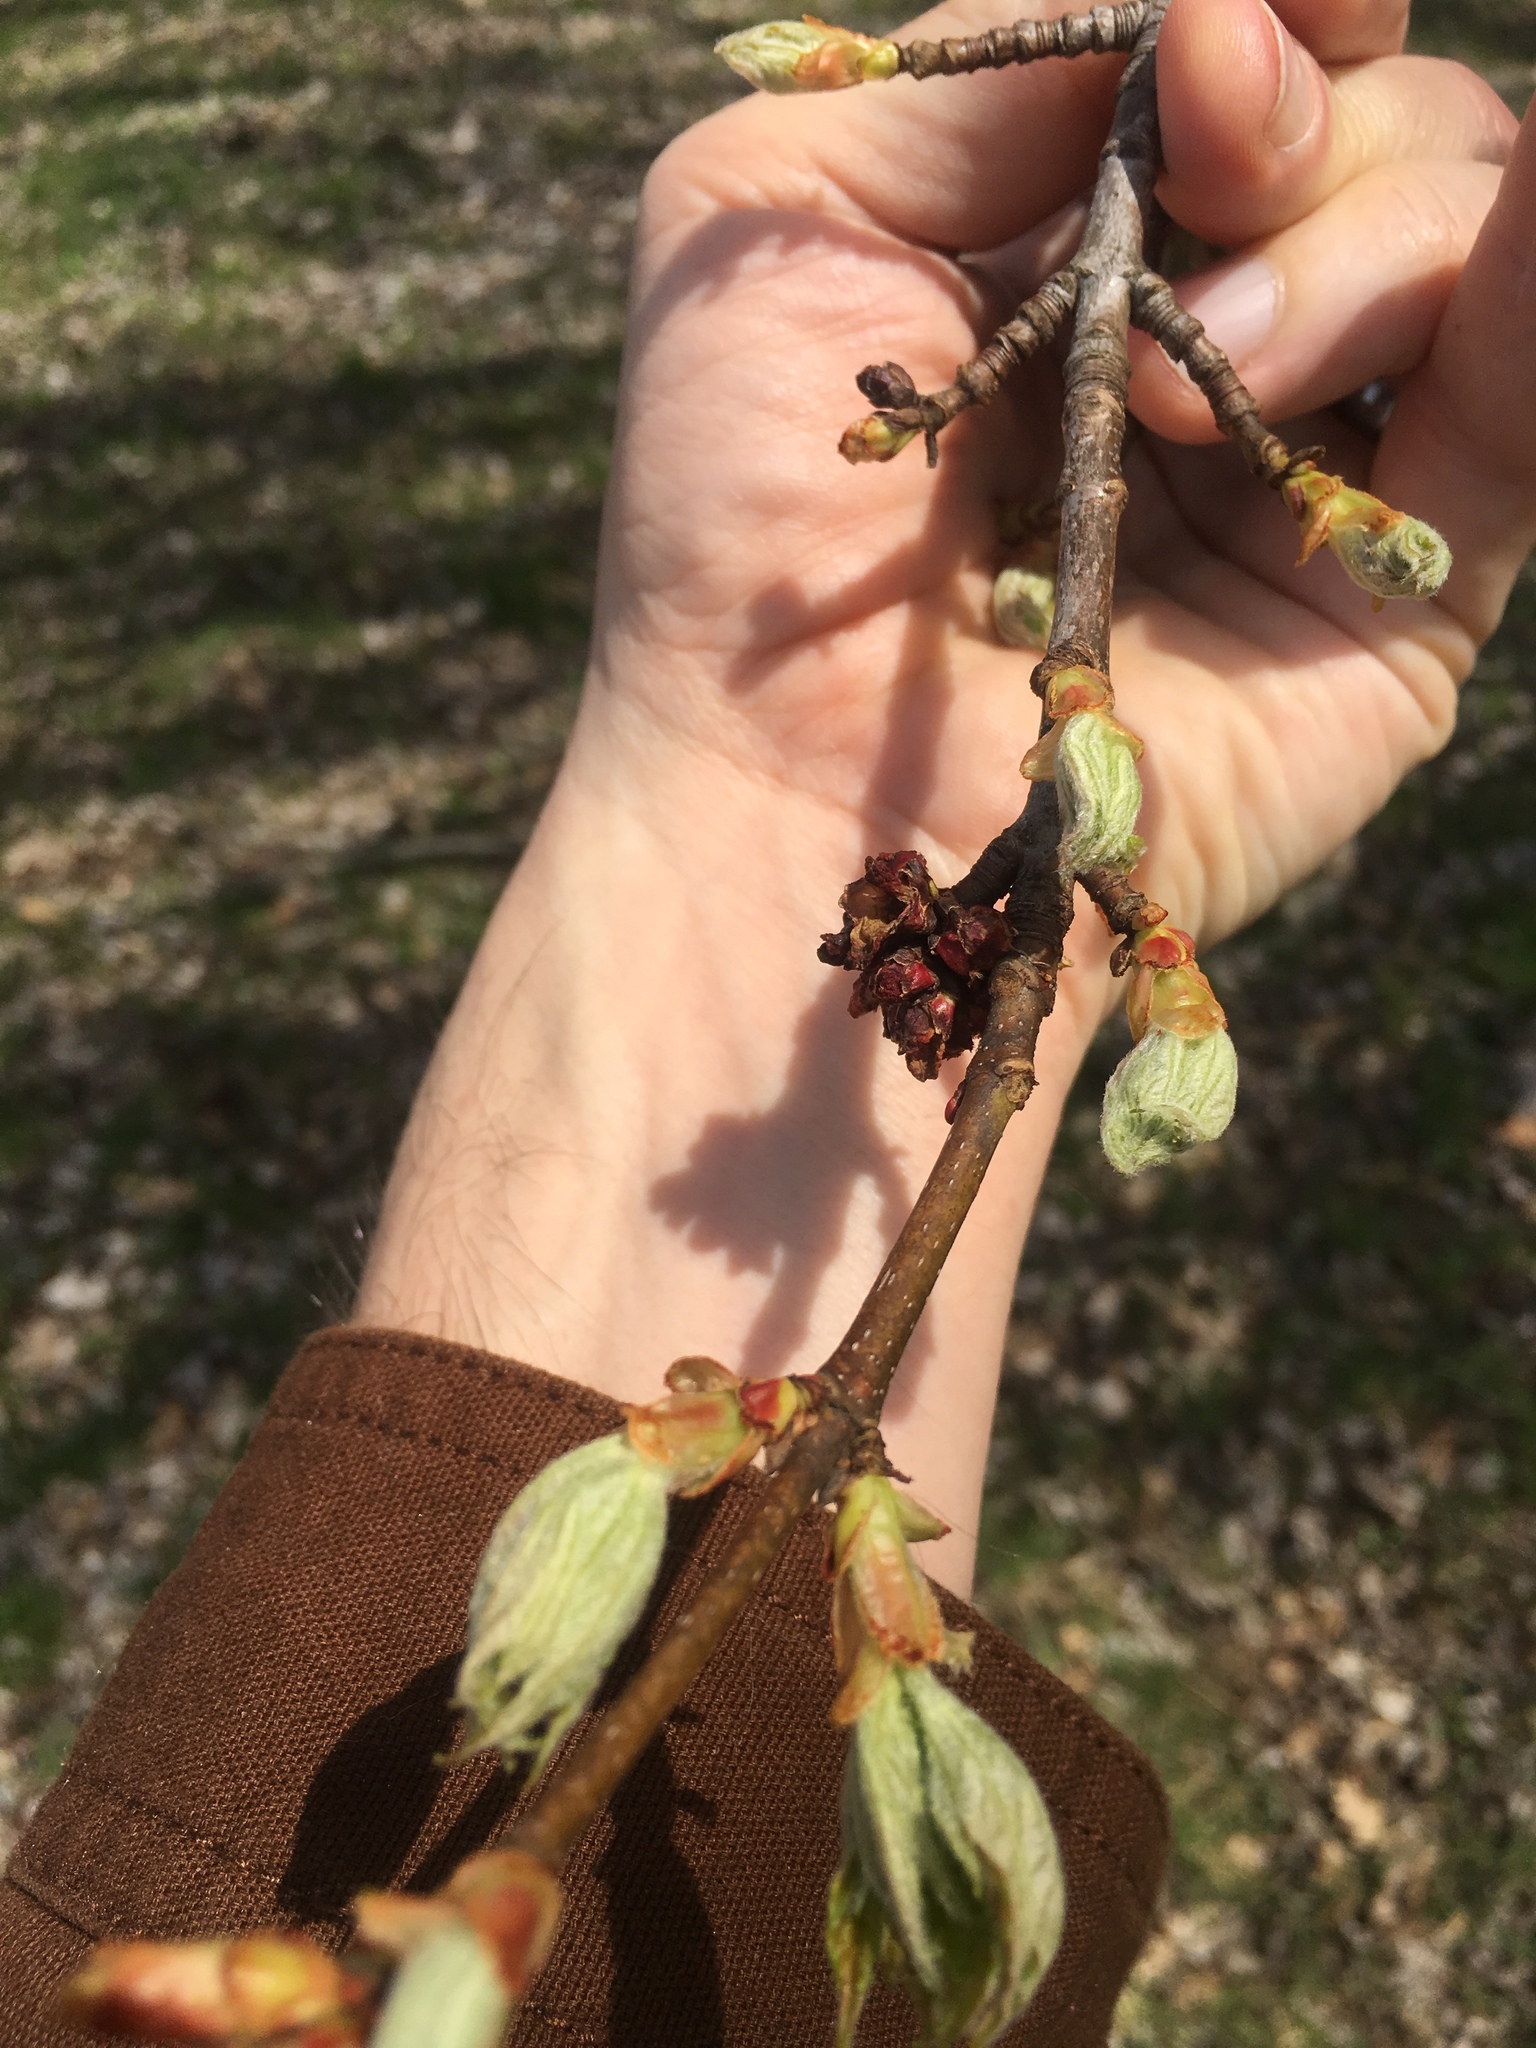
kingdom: Plantae
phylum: Tracheophyta
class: Magnoliopsida
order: Sapindales
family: Sapindaceae
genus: Acer
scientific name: Acer rubrum
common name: Red maple
